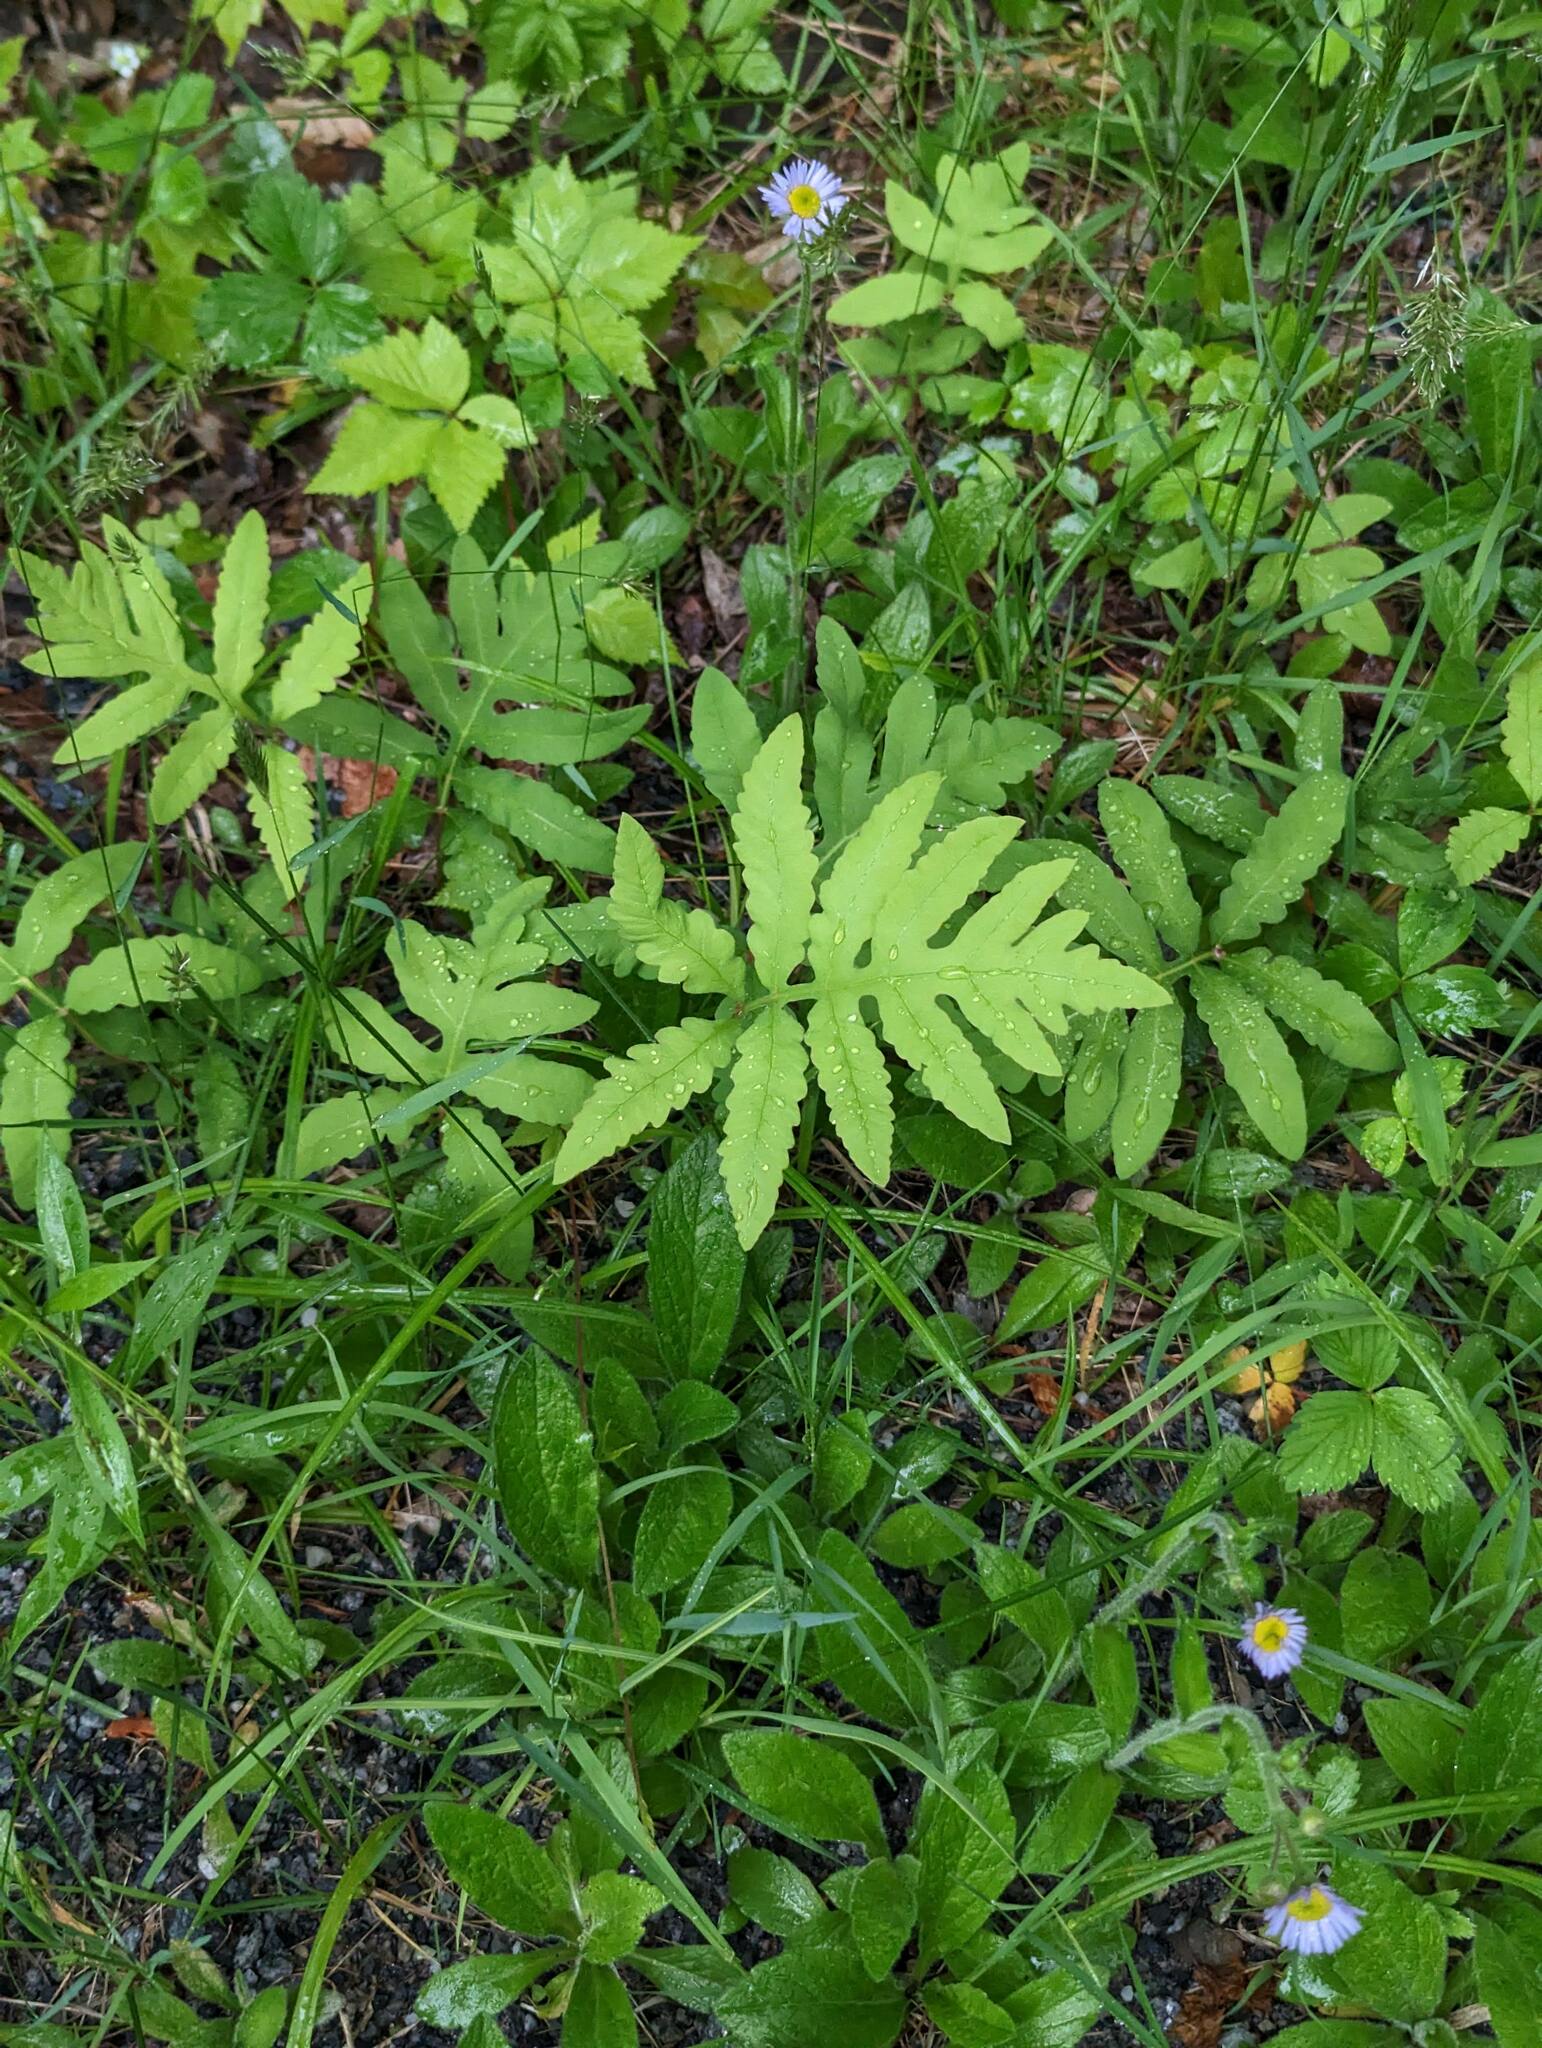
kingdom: Plantae
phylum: Tracheophyta
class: Polypodiopsida
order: Polypodiales
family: Onocleaceae
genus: Onoclea
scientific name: Onoclea sensibilis
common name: Sensitive fern
